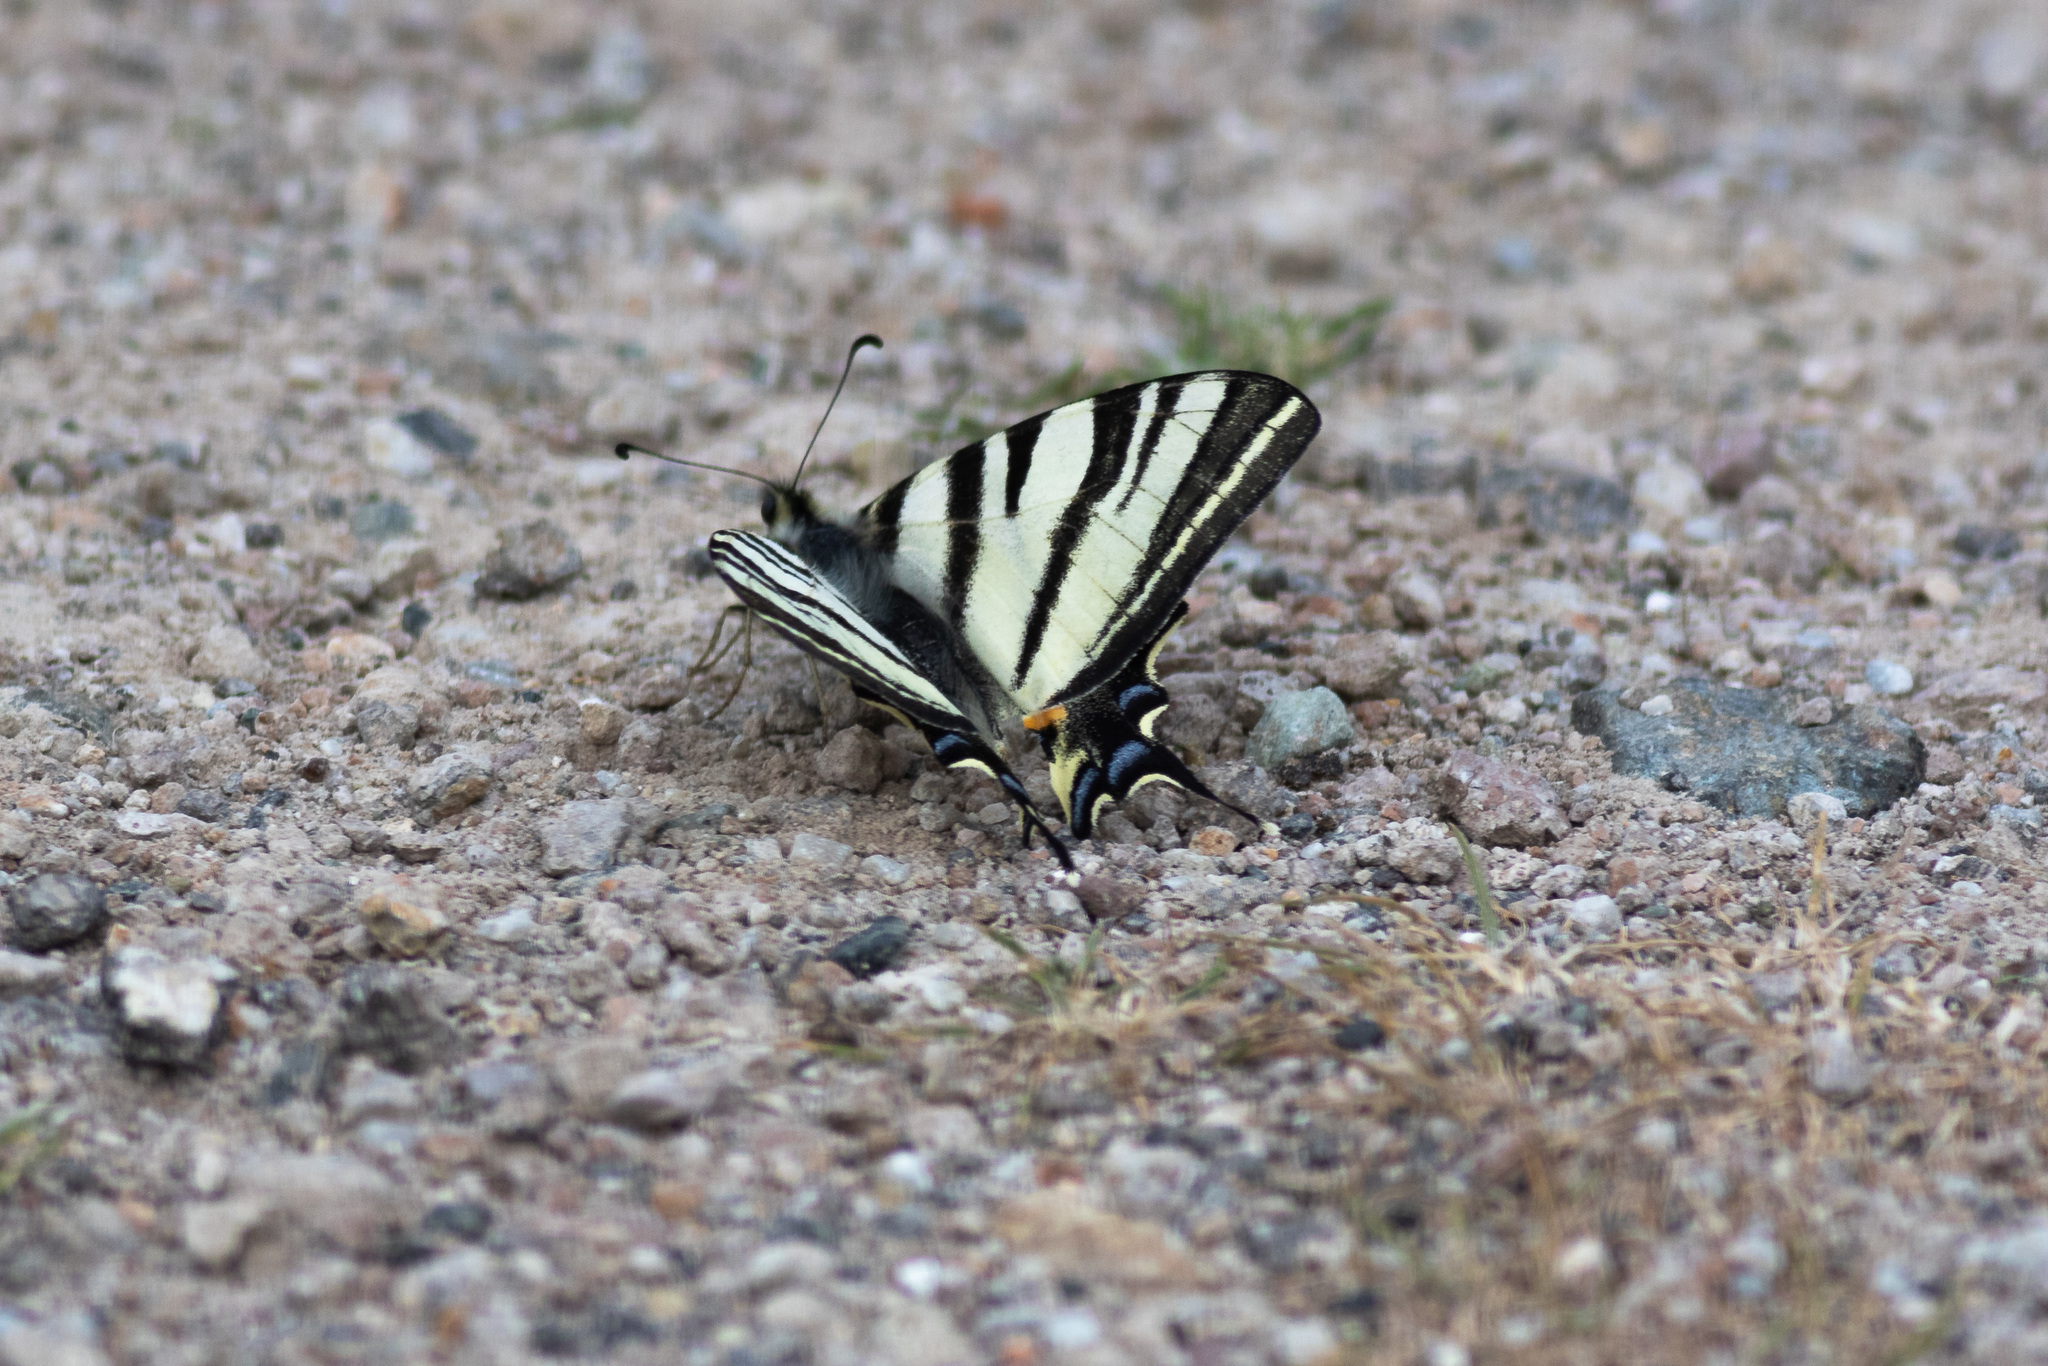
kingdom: Animalia
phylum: Arthropoda
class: Insecta
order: Lepidoptera
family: Papilionidae
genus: Iphiclides
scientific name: Iphiclides podalirius
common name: Scarce swallowtail
